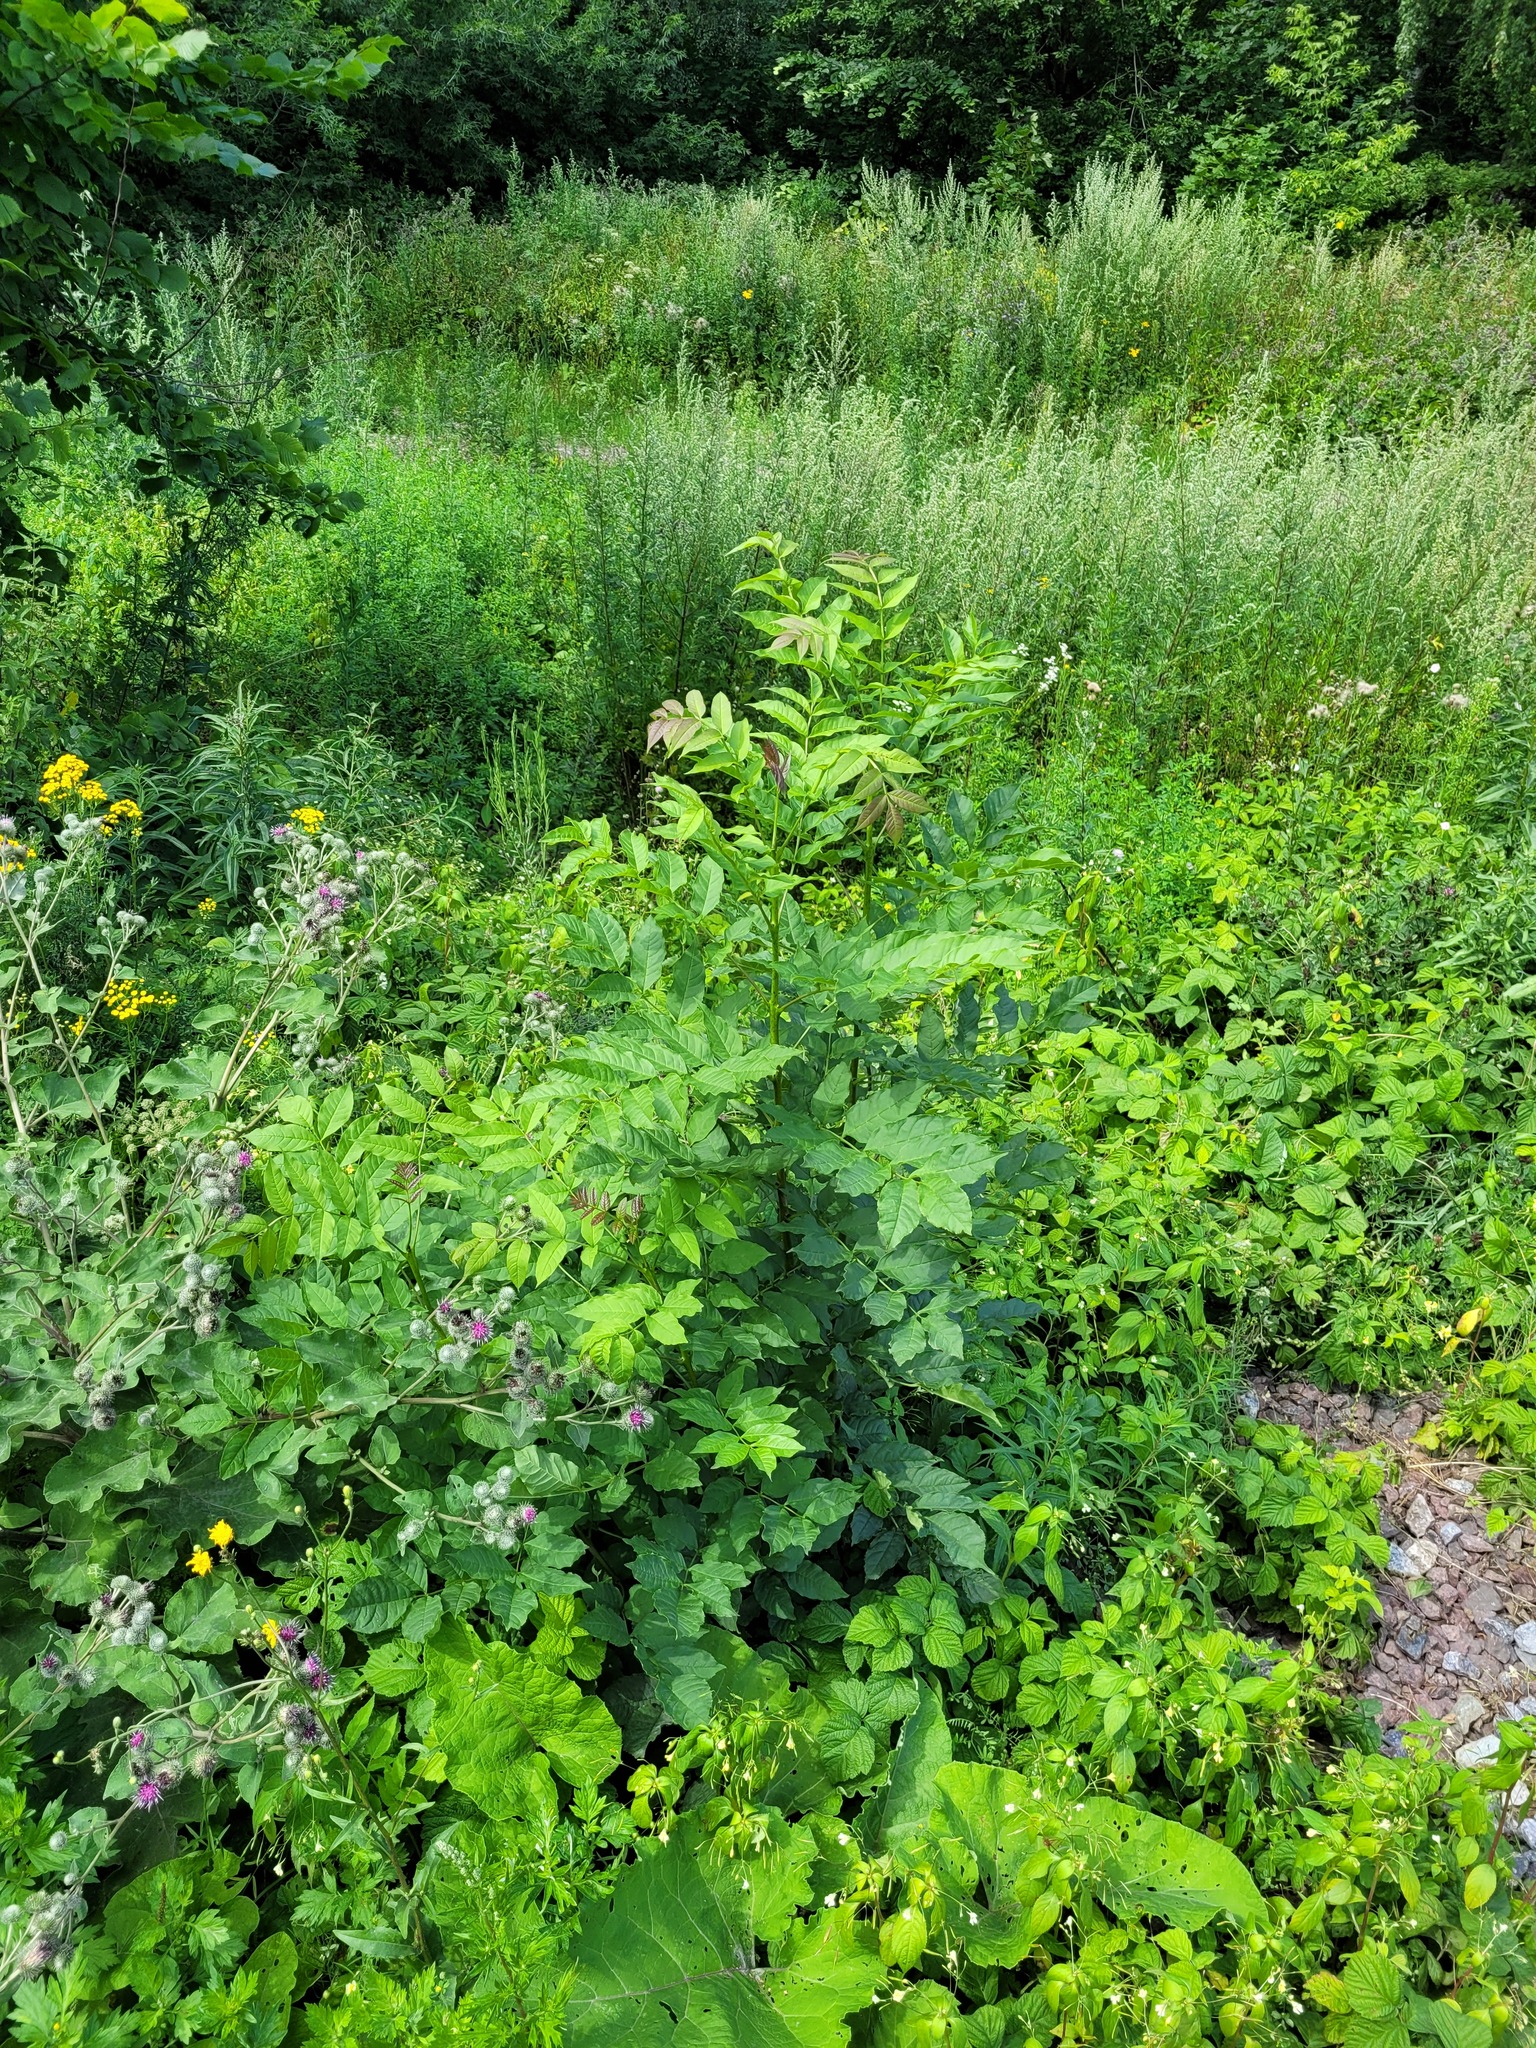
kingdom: Plantae
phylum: Tracheophyta
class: Magnoliopsida
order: Lamiales
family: Oleaceae
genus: Fraxinus
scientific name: Fraxinus excelsior
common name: European ash
